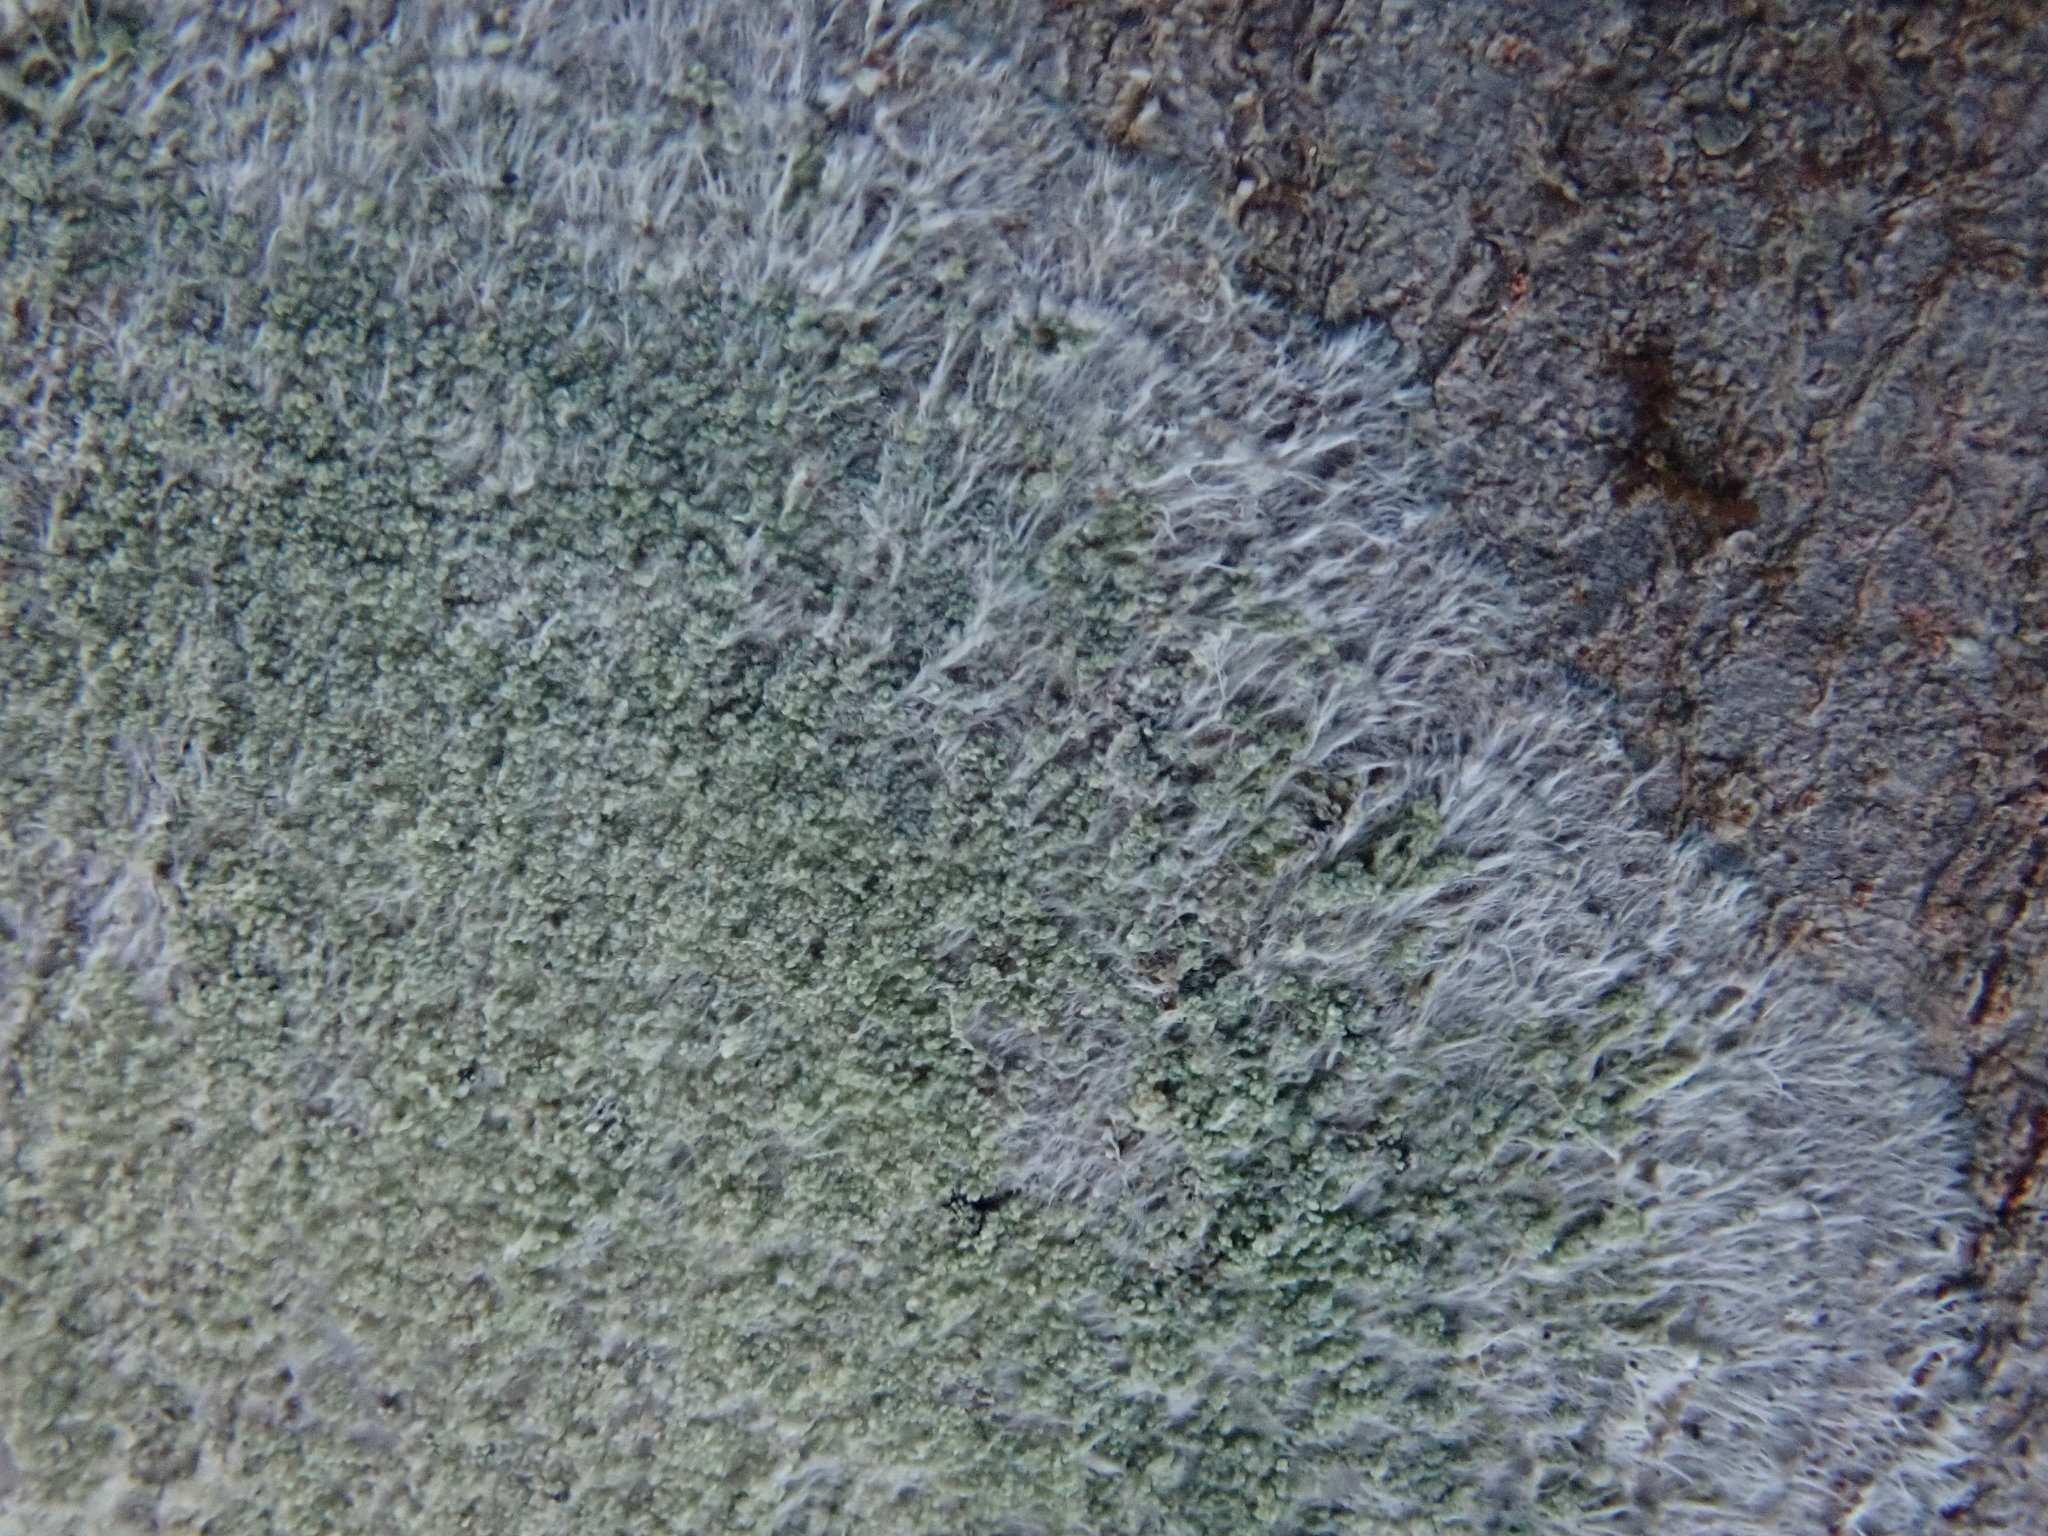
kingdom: Fungi
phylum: Ascomycota
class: Lecanoromycetes
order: Pertusariales
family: Pertusariaceae
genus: Verseghya
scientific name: Verseghya thysanophora
